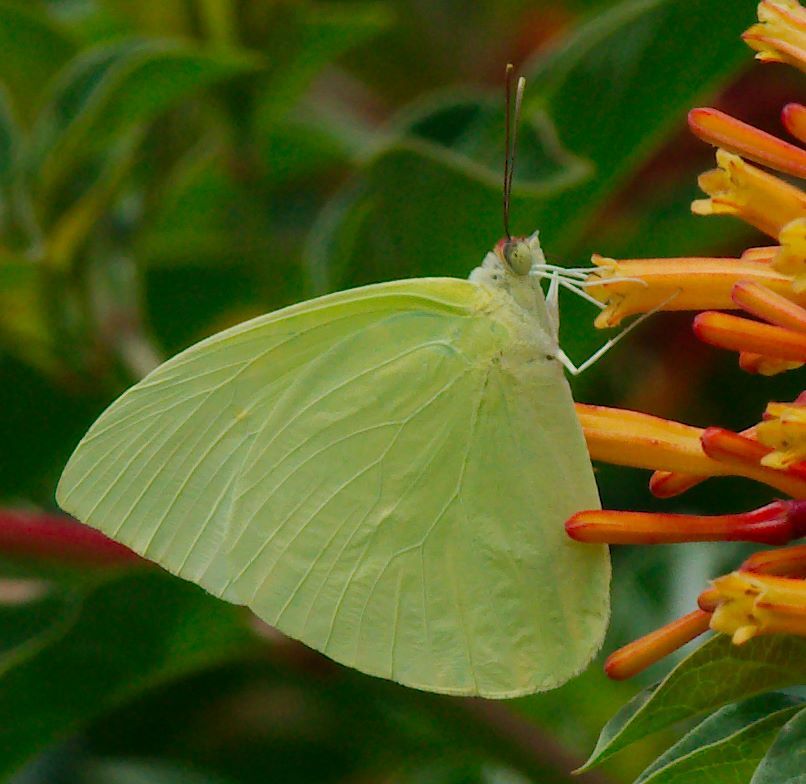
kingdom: Animalia
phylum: Arthropoda
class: Insecta
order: Lepidoptera
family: Pieridae
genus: Aphrissa
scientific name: Aphrissa statira
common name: Statira sulphur
